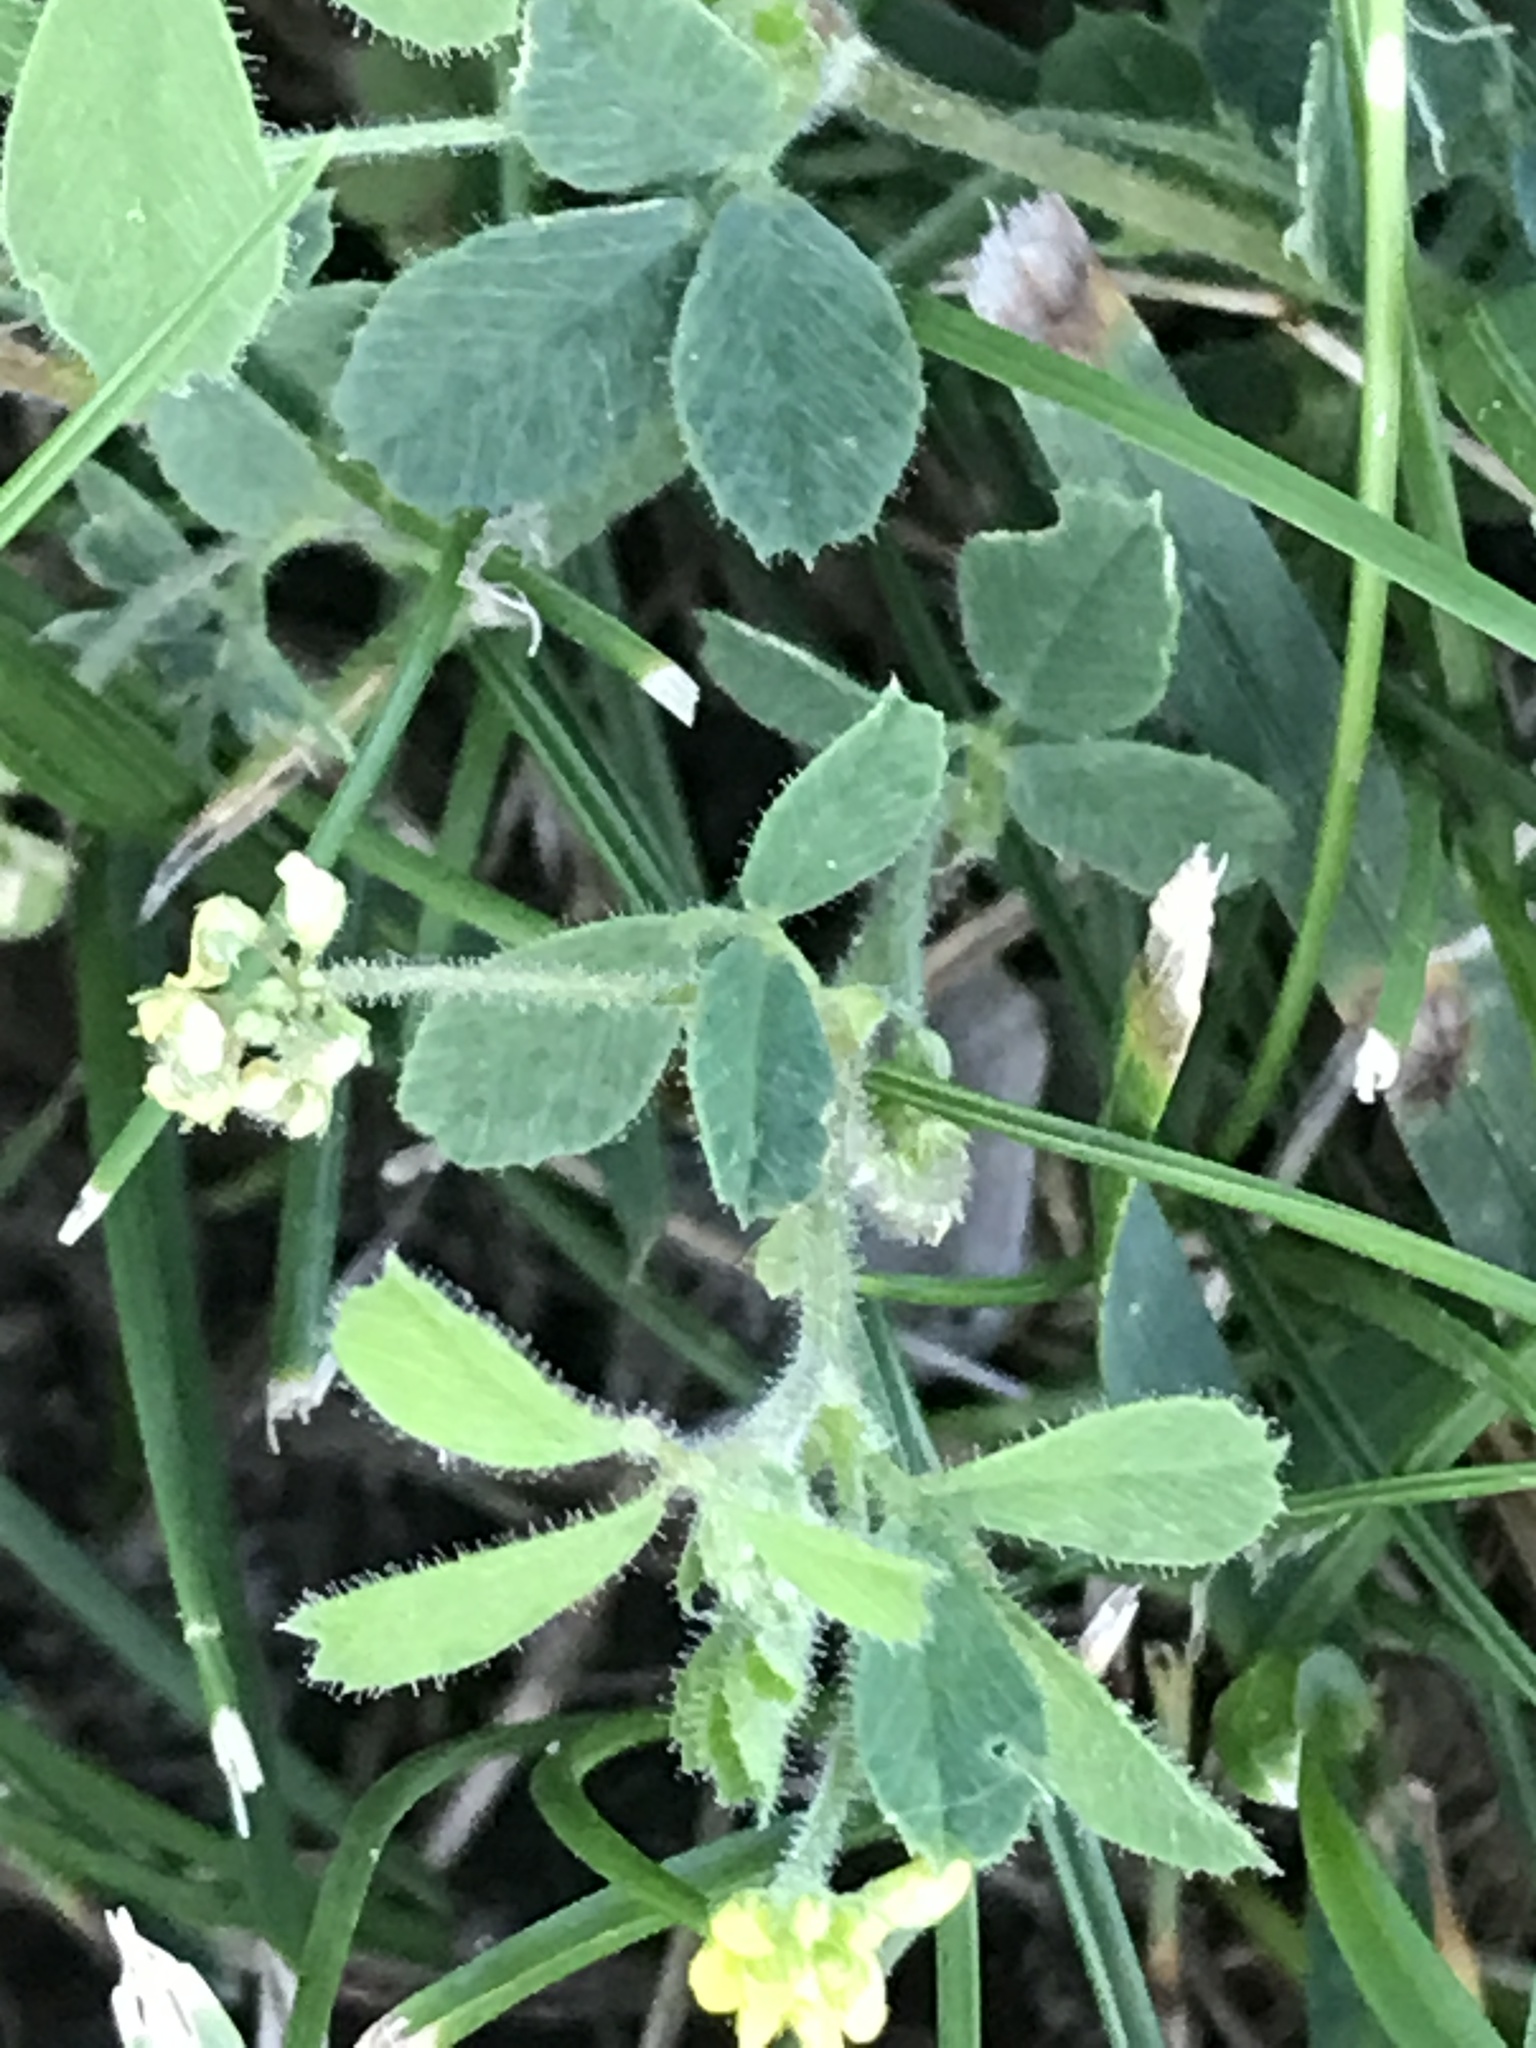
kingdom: Plantae
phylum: Tracheophyta
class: Magnoliopsida
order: Fabales
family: Fabaceae
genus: Medicago
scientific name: Medicago lupulina
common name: Black medick
